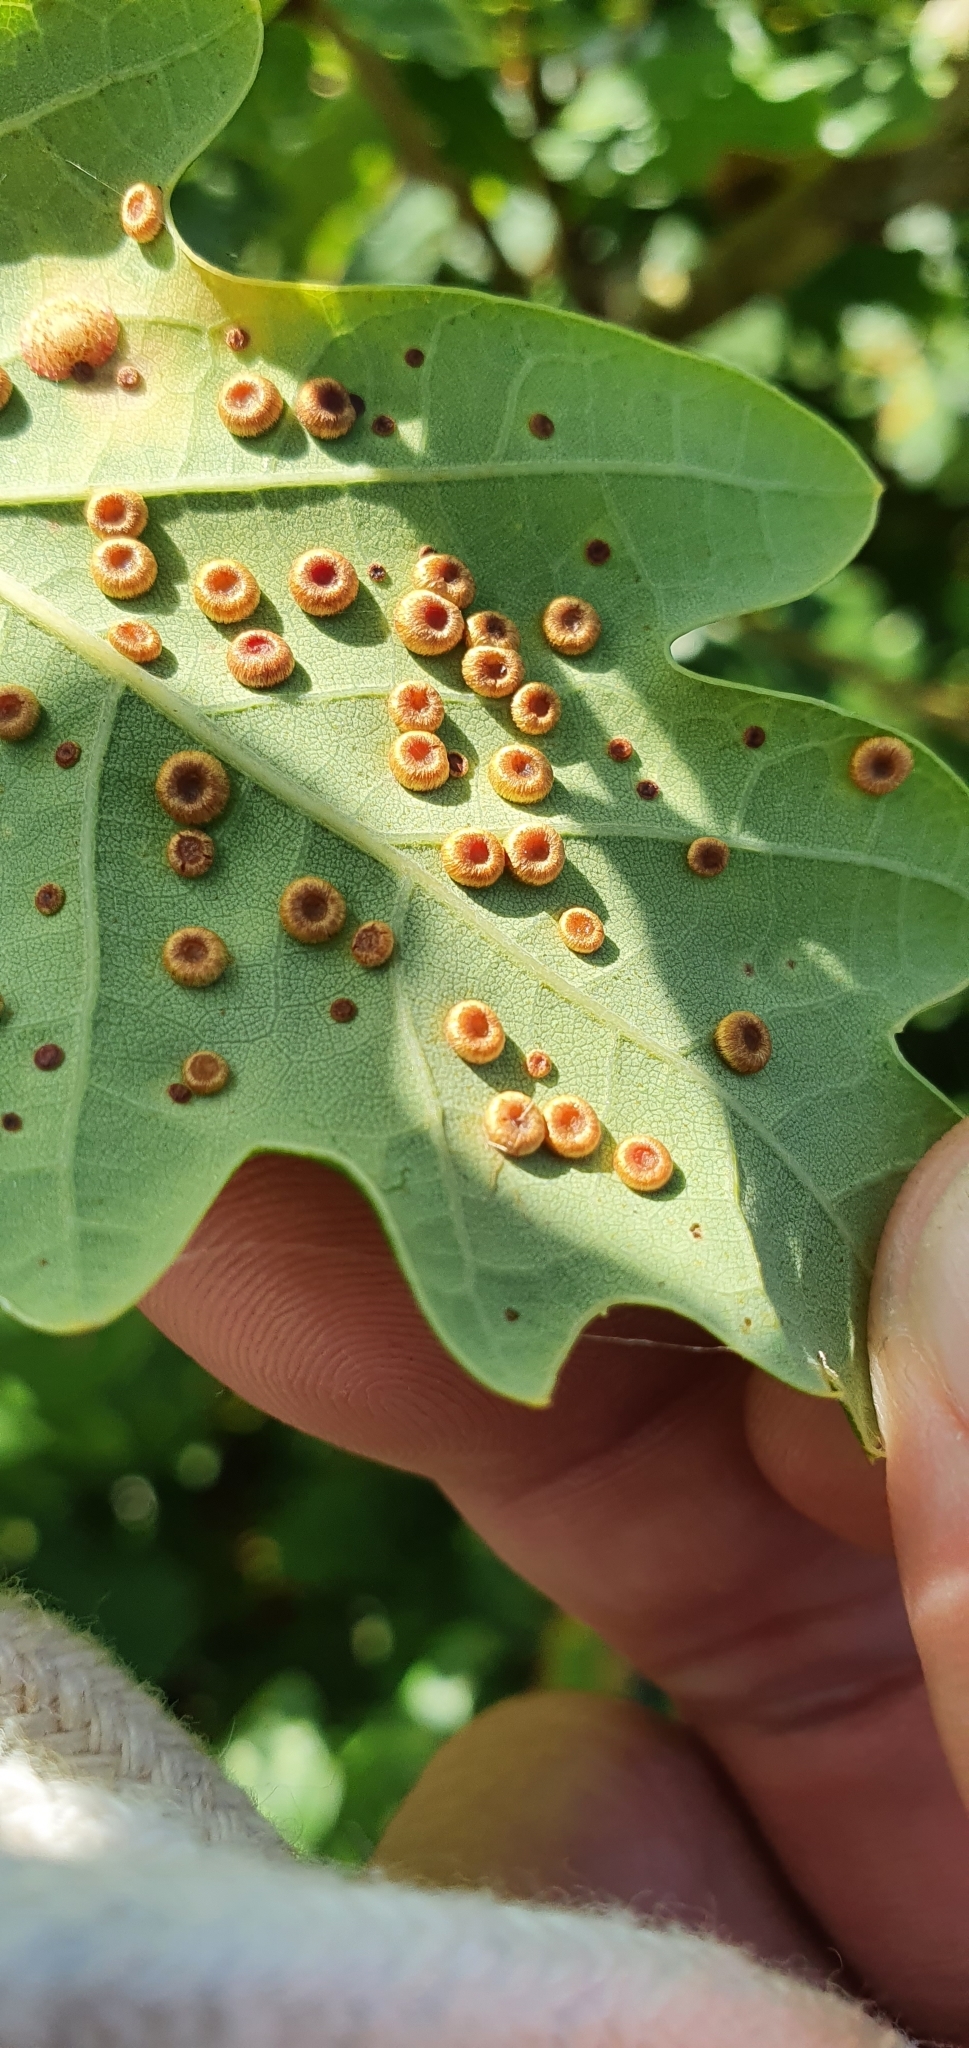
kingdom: Animalia
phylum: Arthropoda
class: Insecta
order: Hymenoptera
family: Cynipidae
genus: Neuroterus
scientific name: Neuroterus numismalis
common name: Silk-button spangle gall
